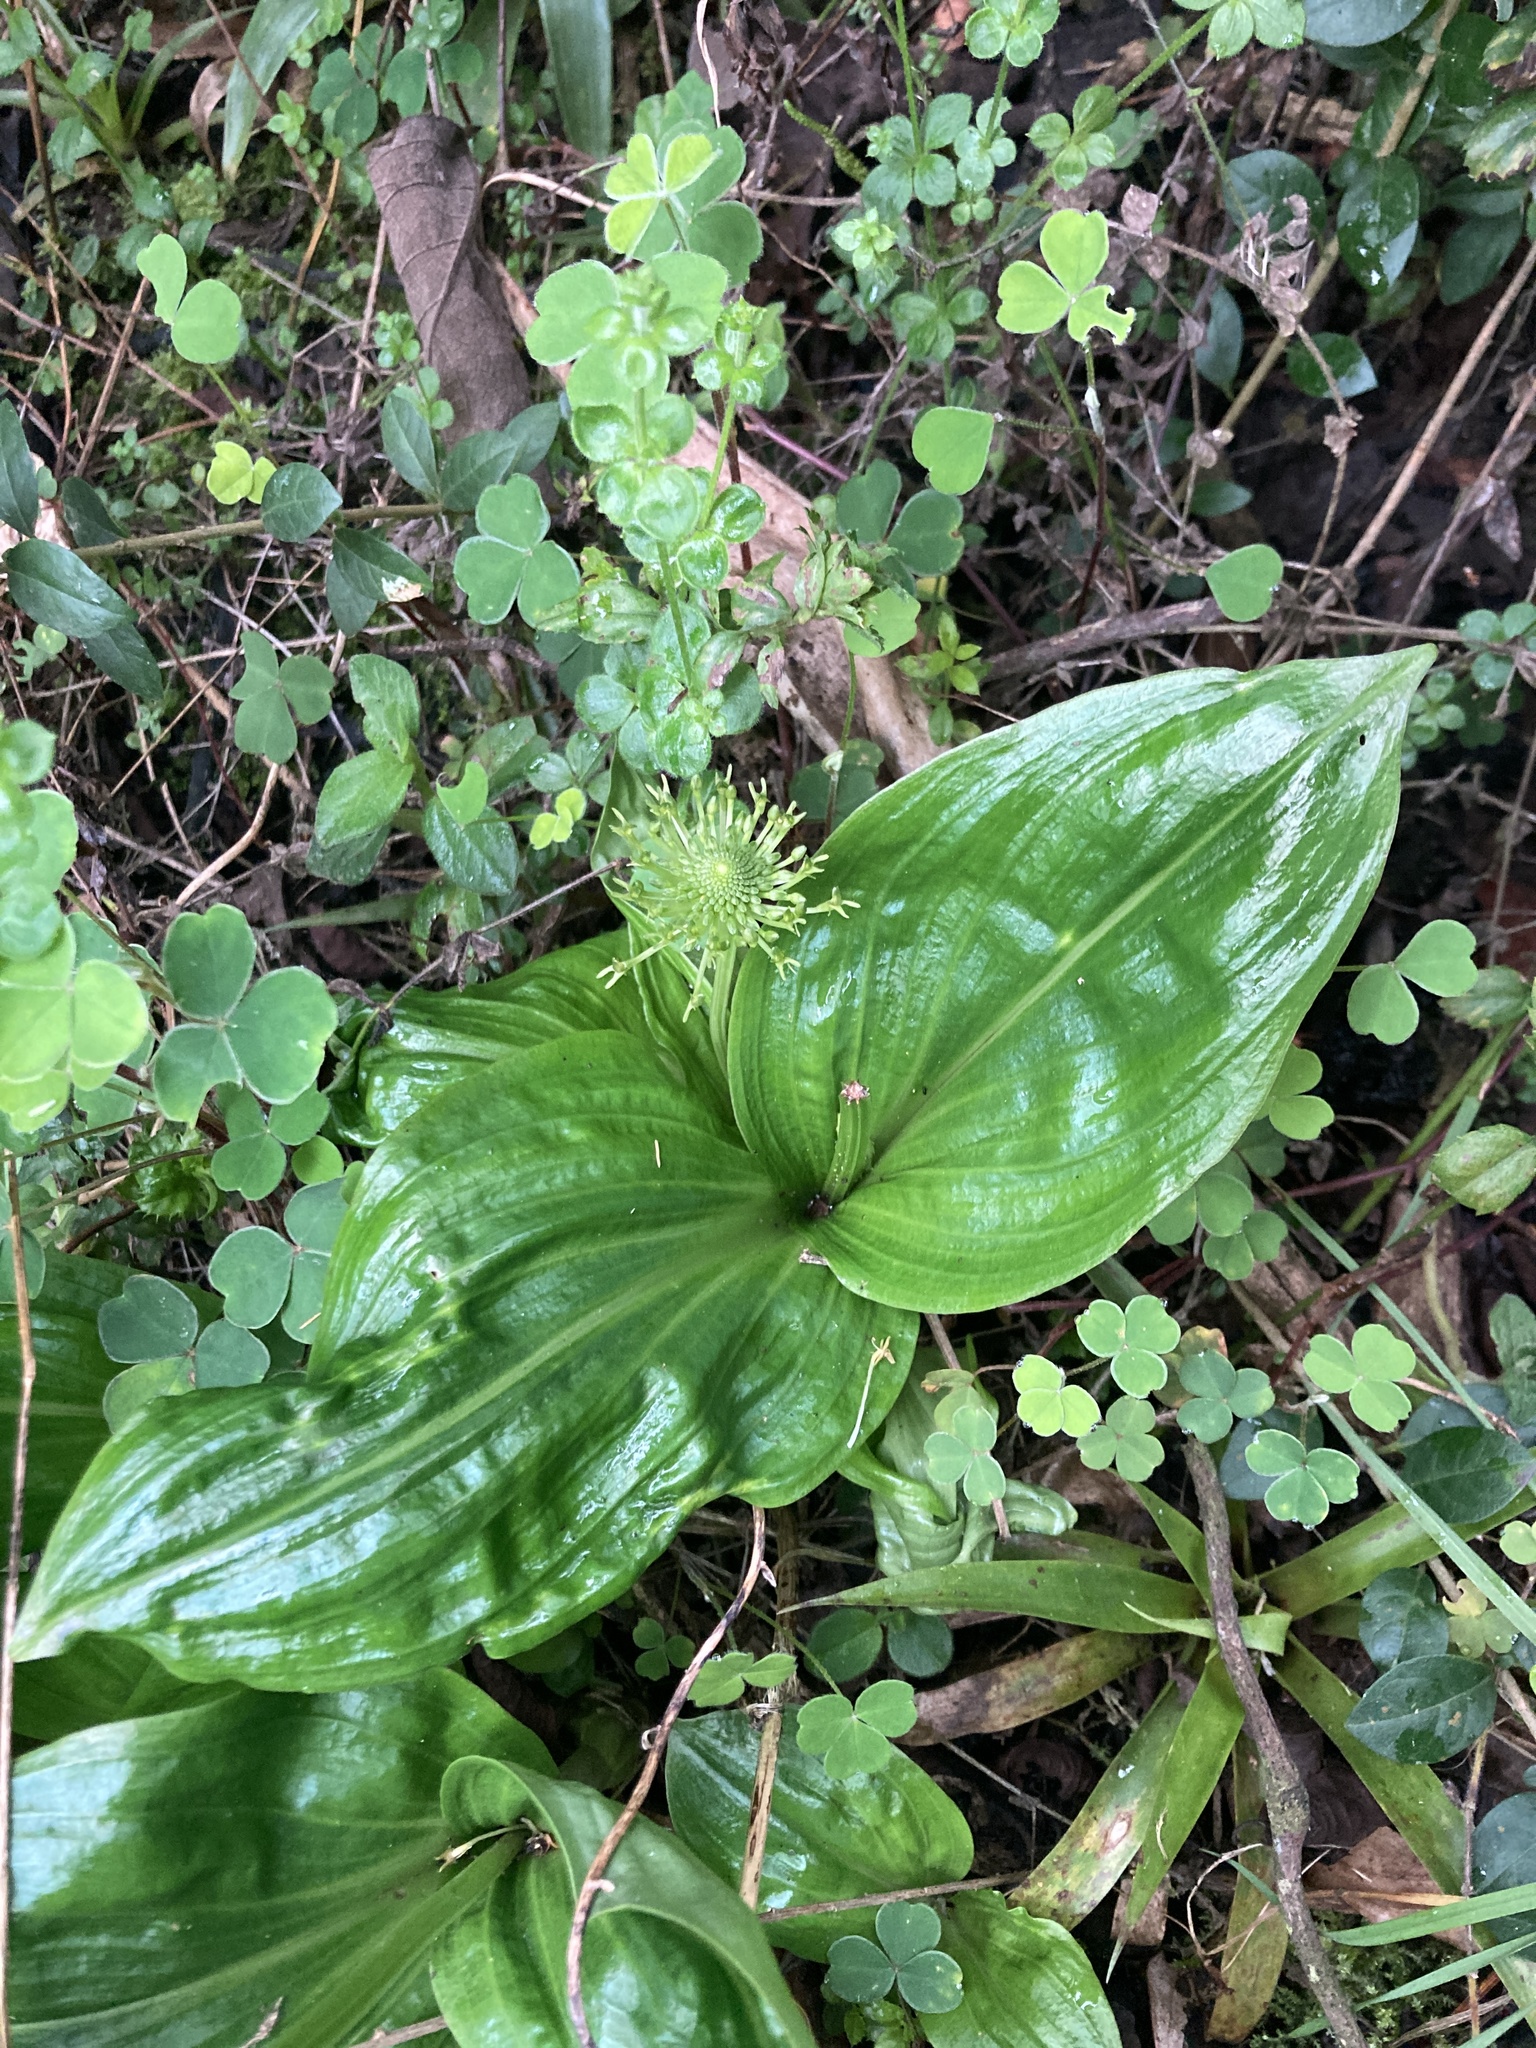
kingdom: Plantae
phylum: Tracheophyta
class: Liliopsida
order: Asparagales
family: Orchidaceae
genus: Malaxis
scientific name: Malaxis excavata
